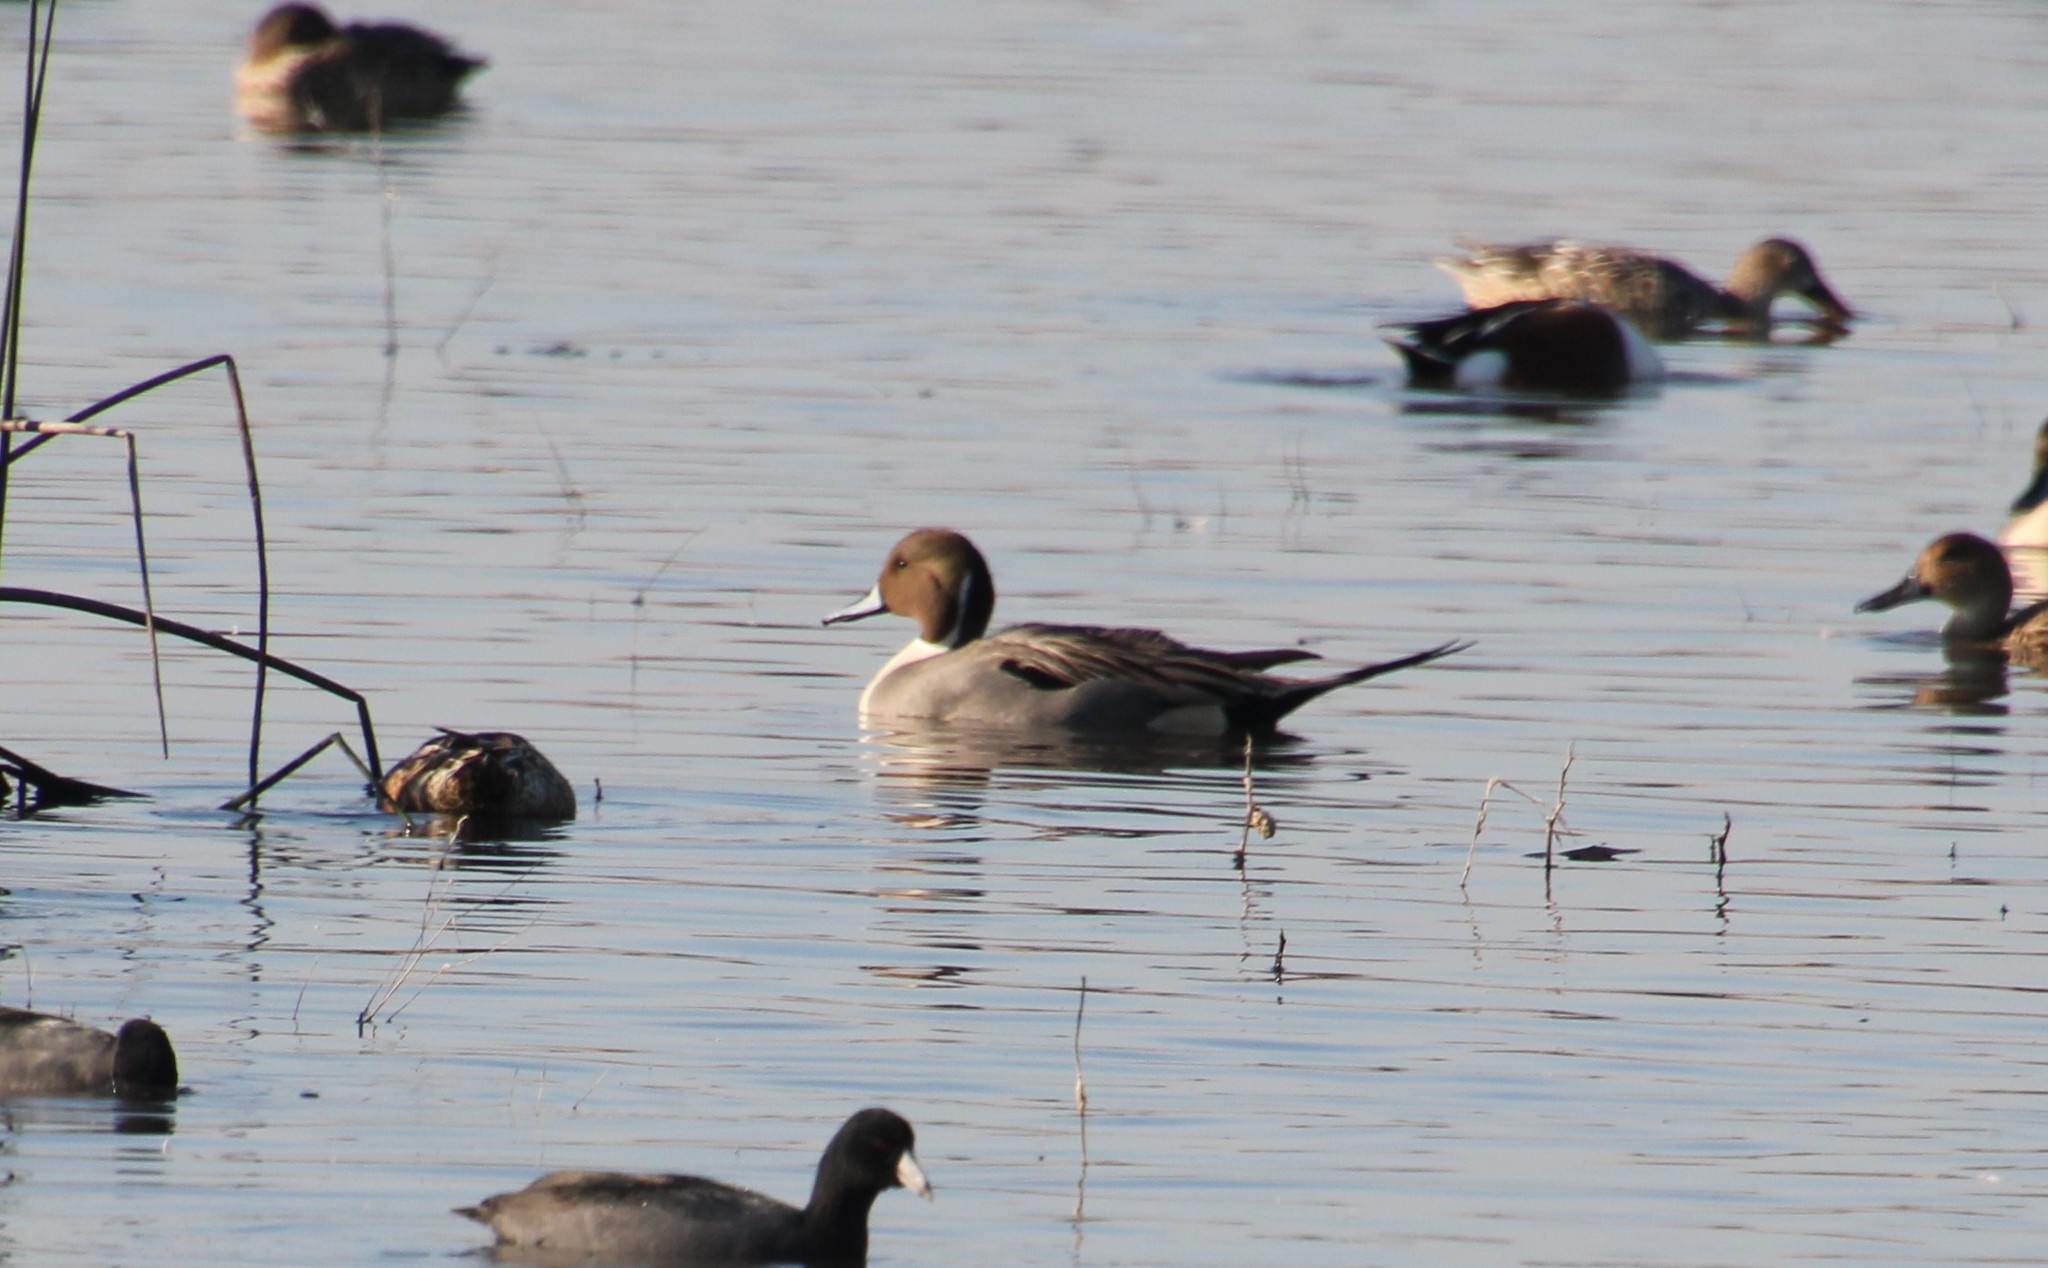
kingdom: Animalia
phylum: Chordata
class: Aves
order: Anseriformes
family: Anatidae
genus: Anas
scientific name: Anas acuta
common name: Northern pintail
